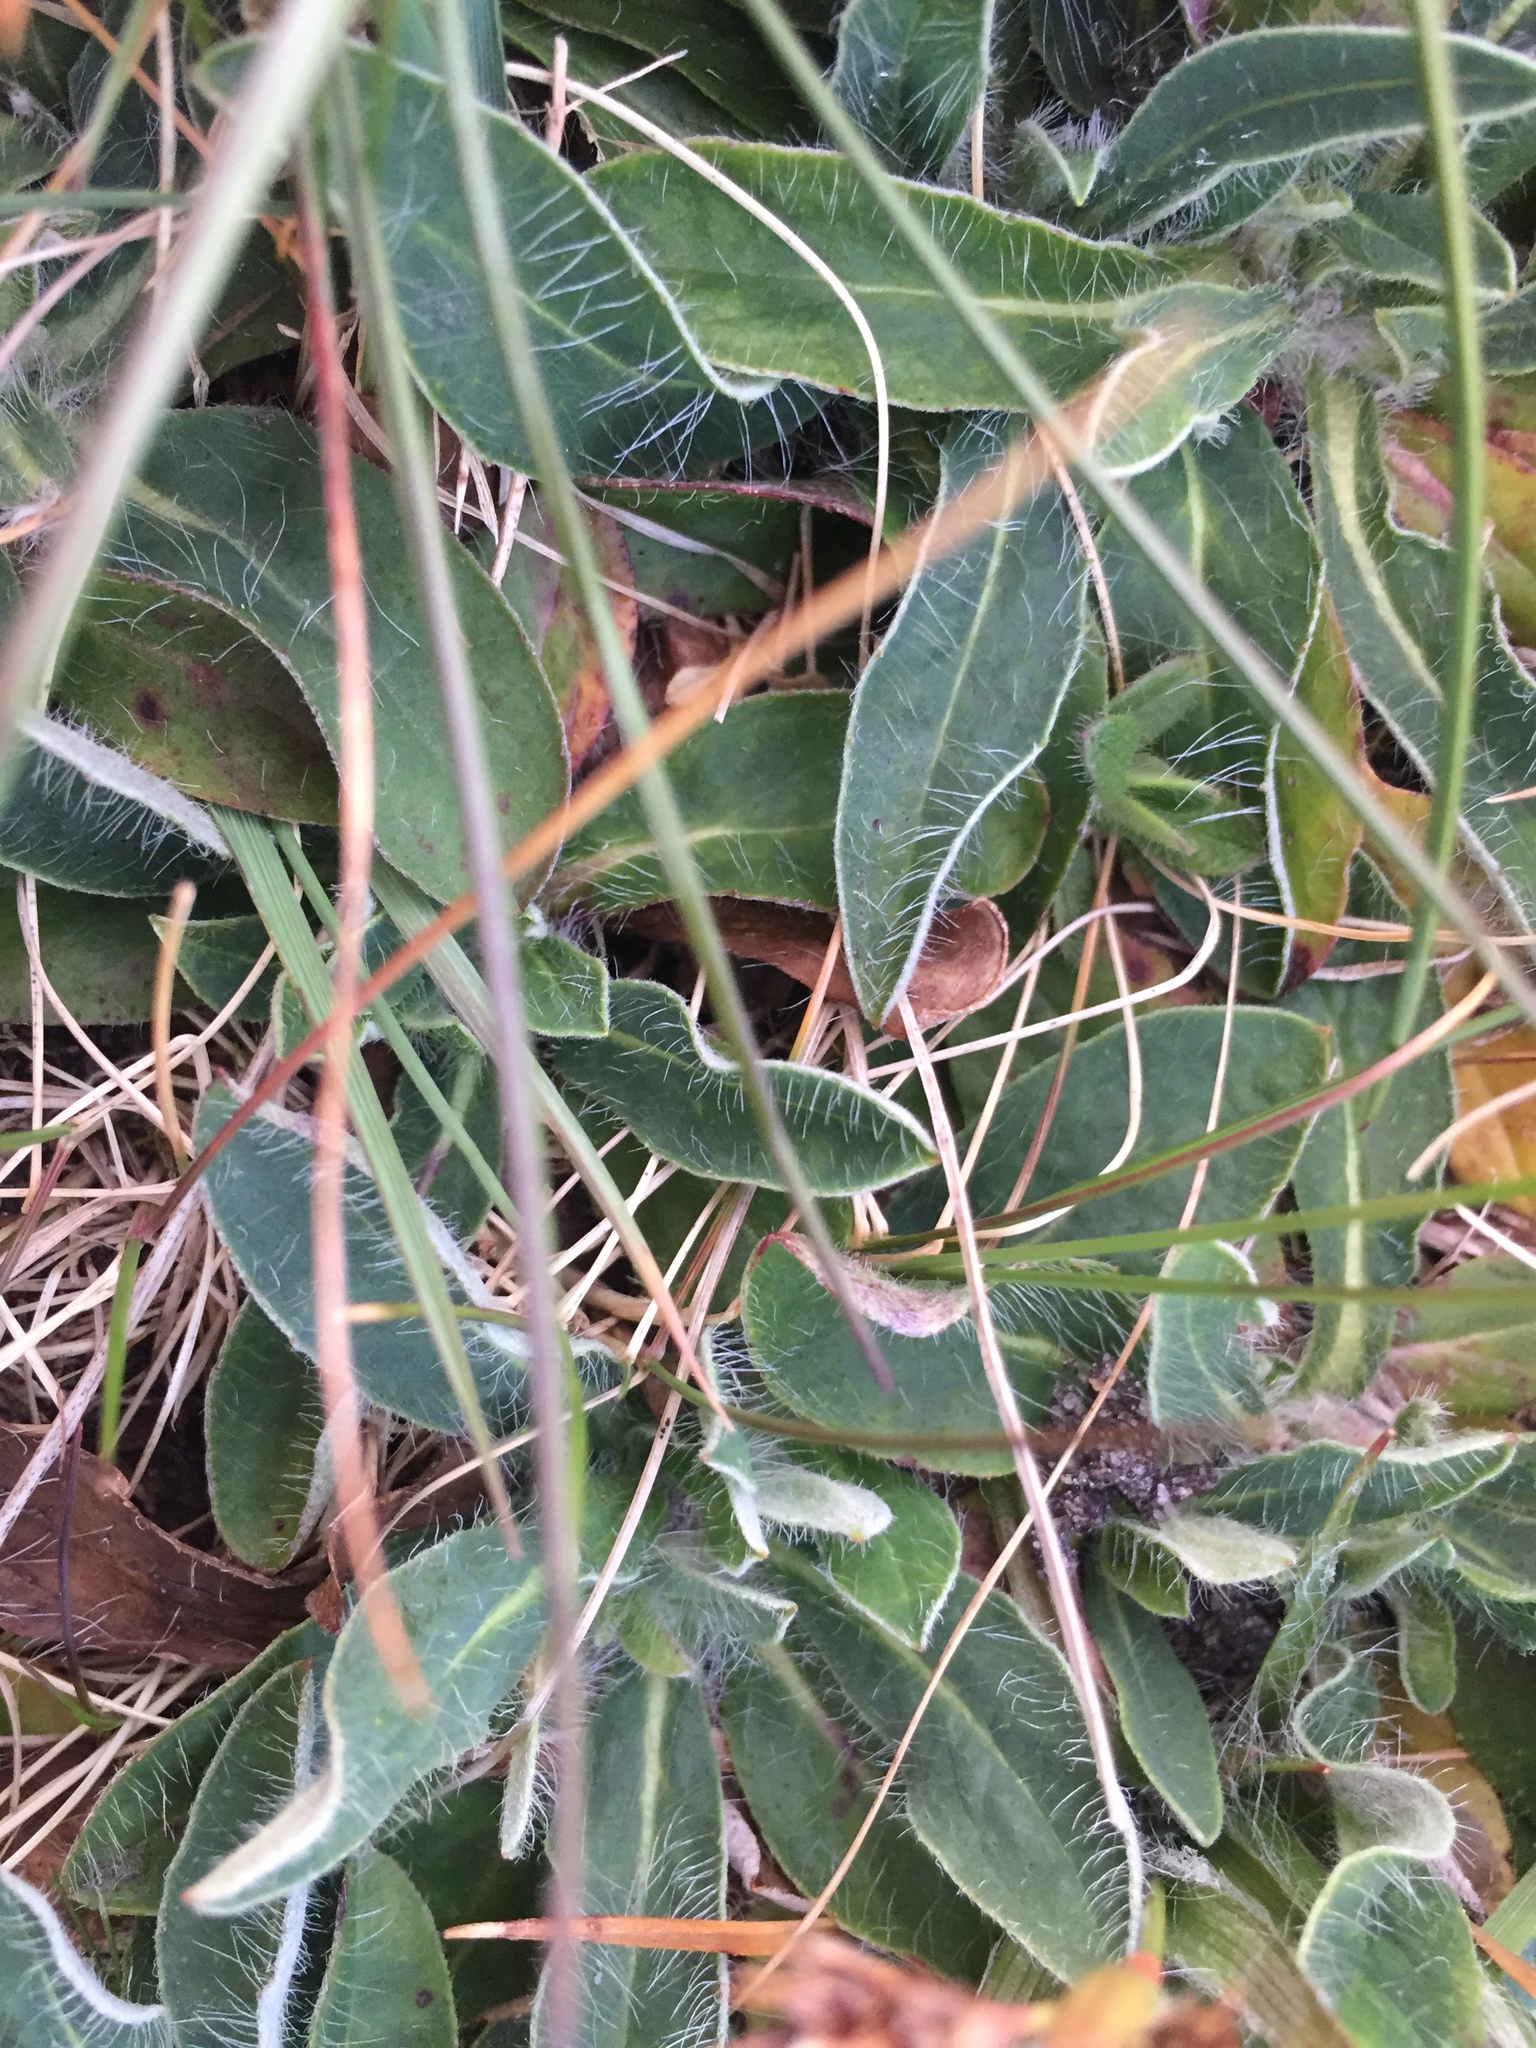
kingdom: Plantae
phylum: Tracheophyta
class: Magnoliopsida
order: Asterales
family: Asteraceae
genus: Pilosella
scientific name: Pilosella officinarum
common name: Mouse-ear hawkweed
